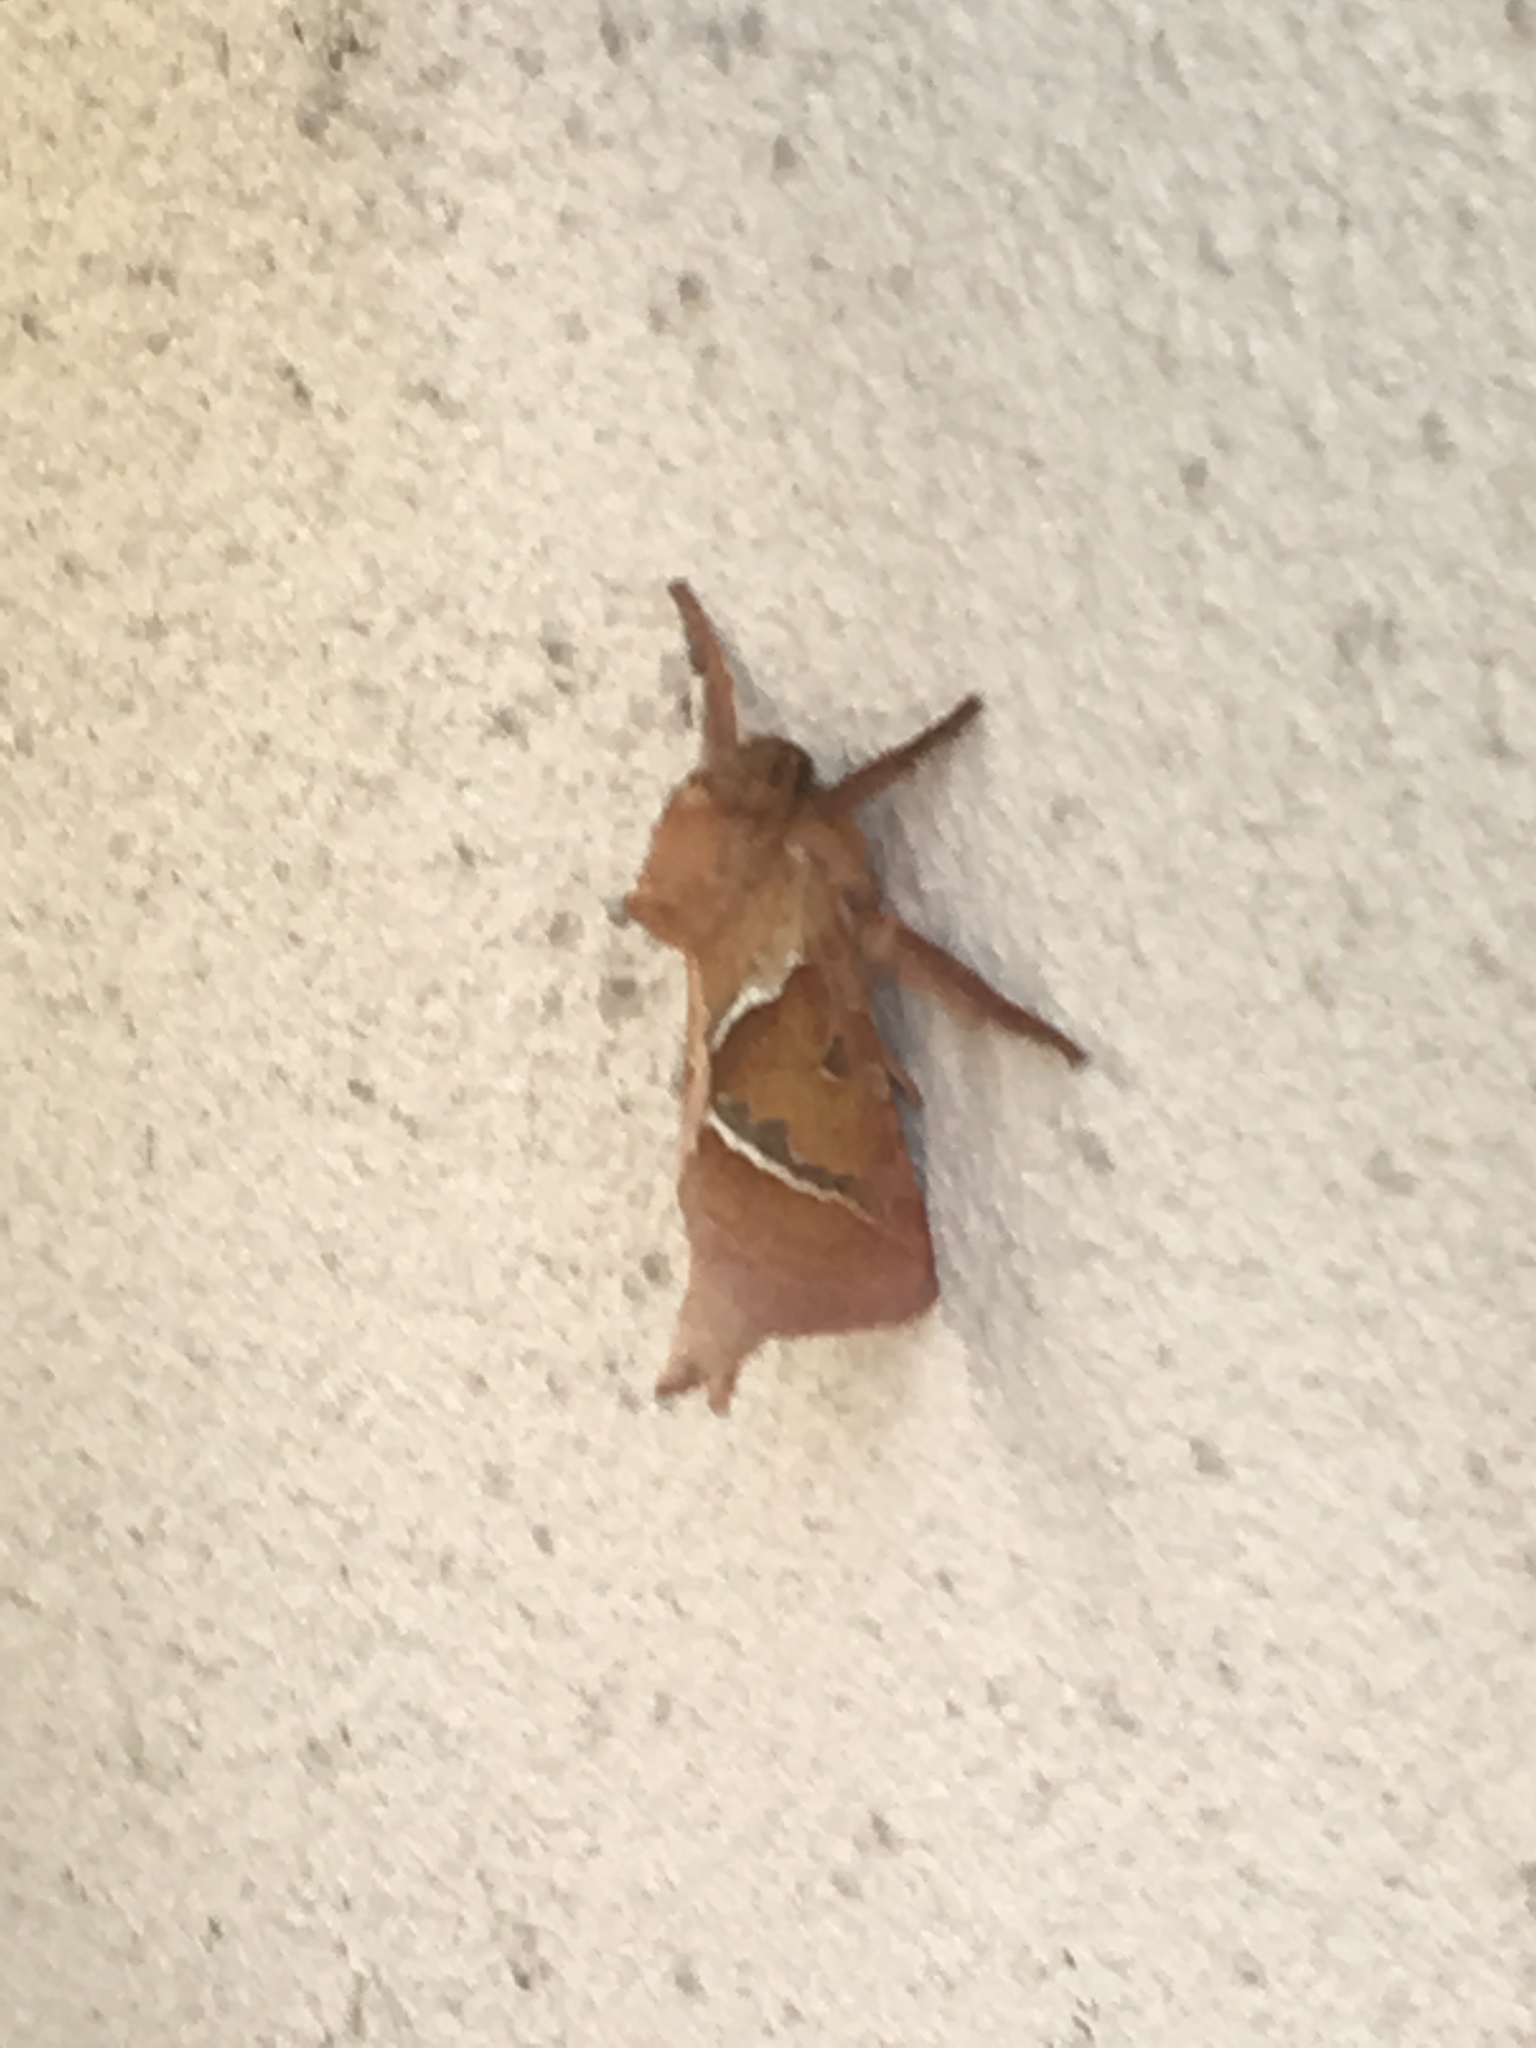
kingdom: Animalia
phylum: Arthropoda
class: Insecta
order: Lepidoptera
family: Hepialidae
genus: Triodia
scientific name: Triodia sylvina
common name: Orange swift
